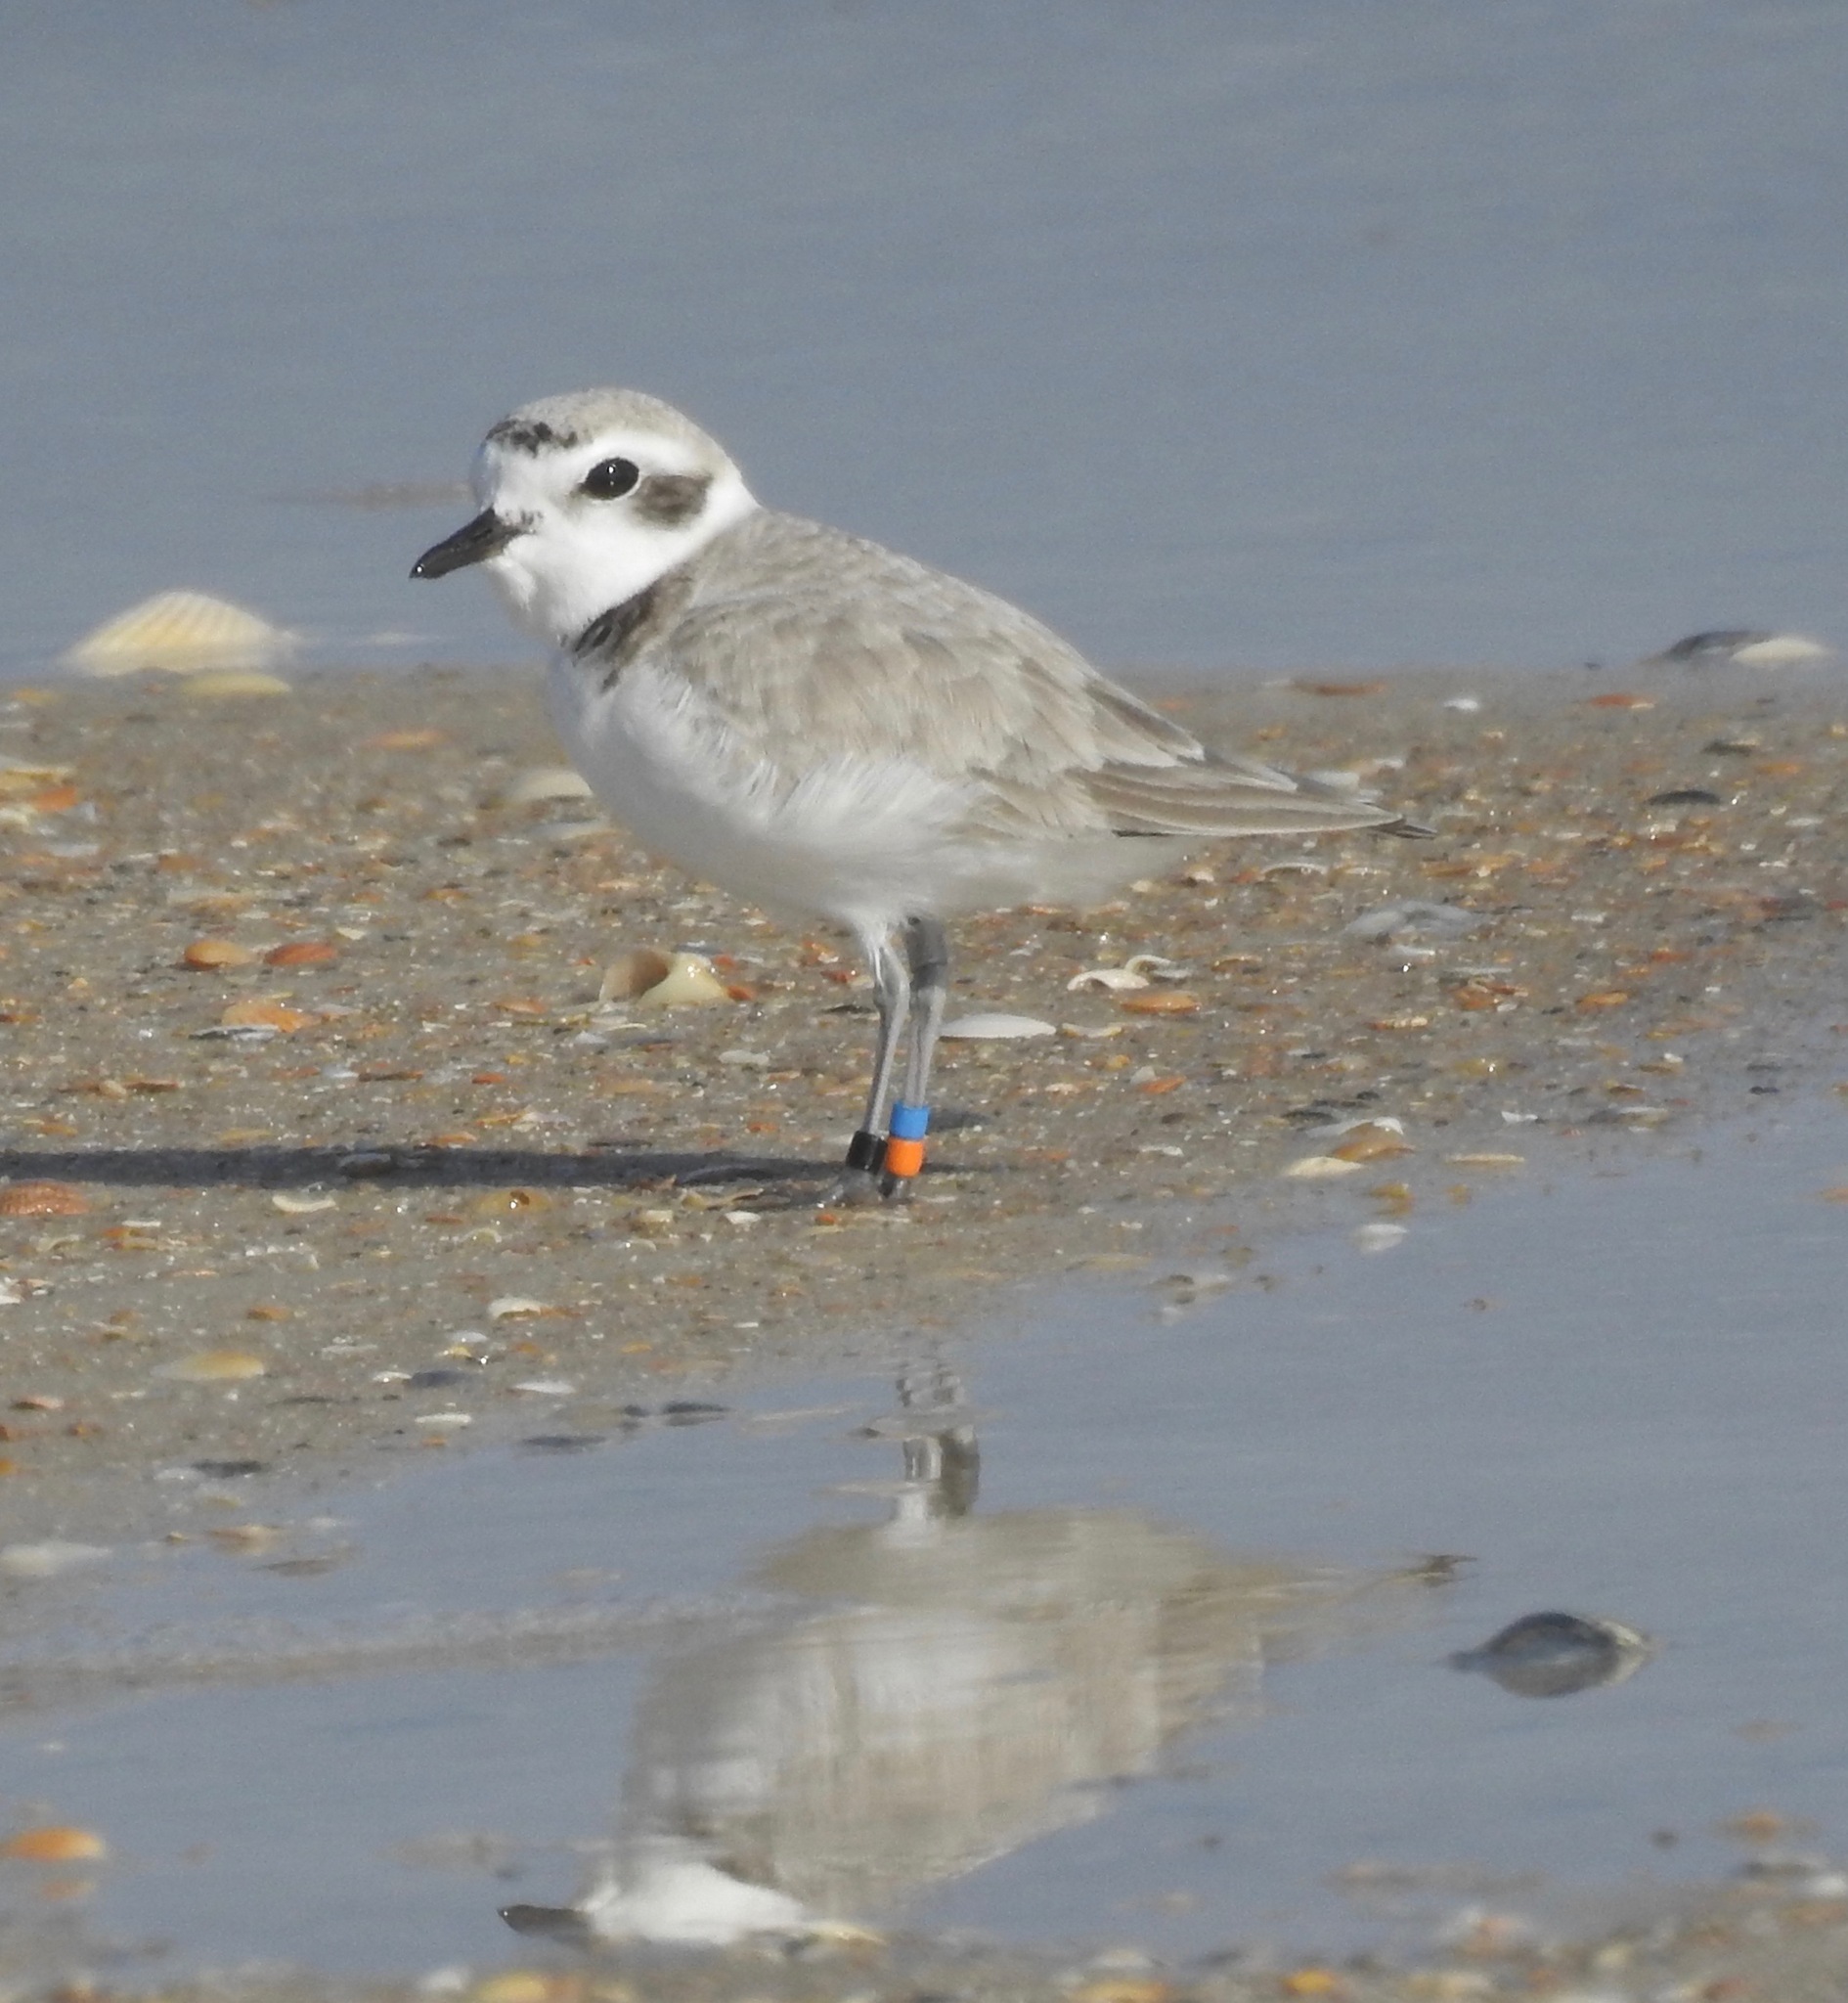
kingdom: Animalia
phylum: Chordata
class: Aves
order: Charadriiformes
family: Charadriidae
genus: Anarhynchus
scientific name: Anarhynchus
